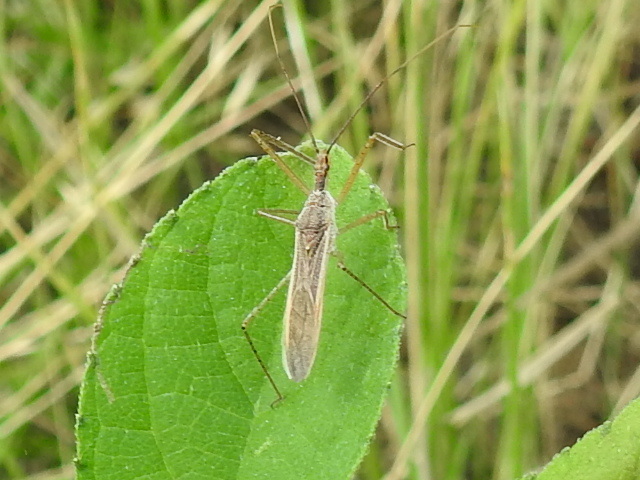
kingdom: Animalia
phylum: Arthropoda
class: Insecta
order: Hemiptera
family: Reduviidae
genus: Zelus
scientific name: Zelus cervicalis
